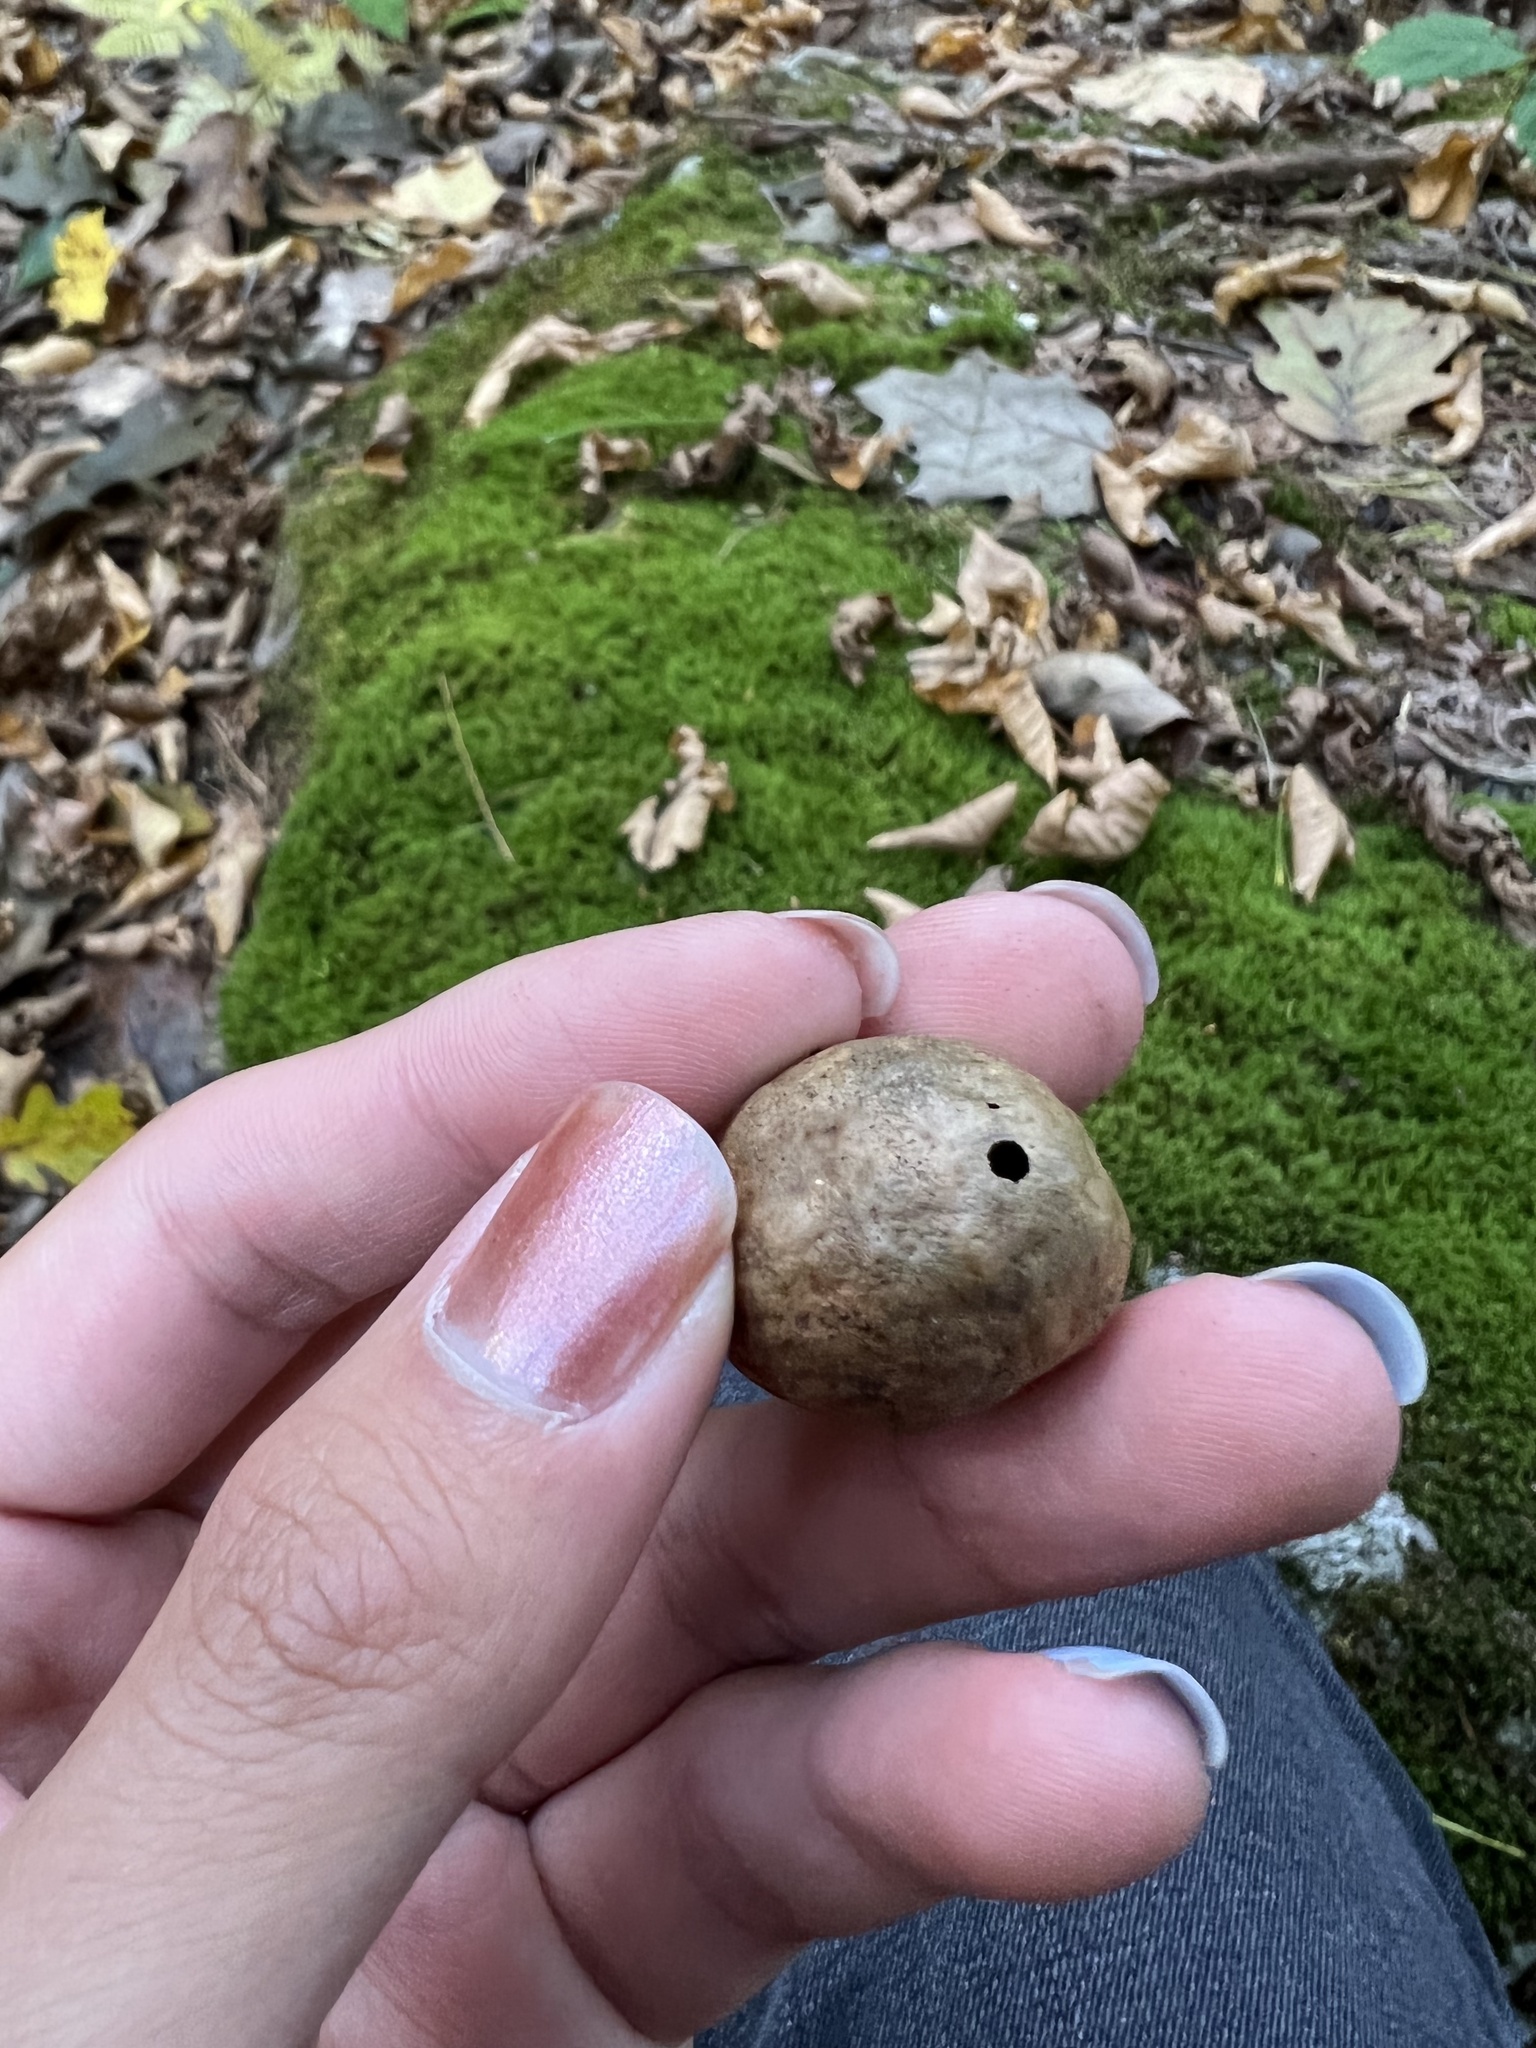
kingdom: Animalia
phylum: Arthropoda
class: Insecta
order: Hymenoptera
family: Cynipidae
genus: Amphibolips
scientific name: Amphibolips
